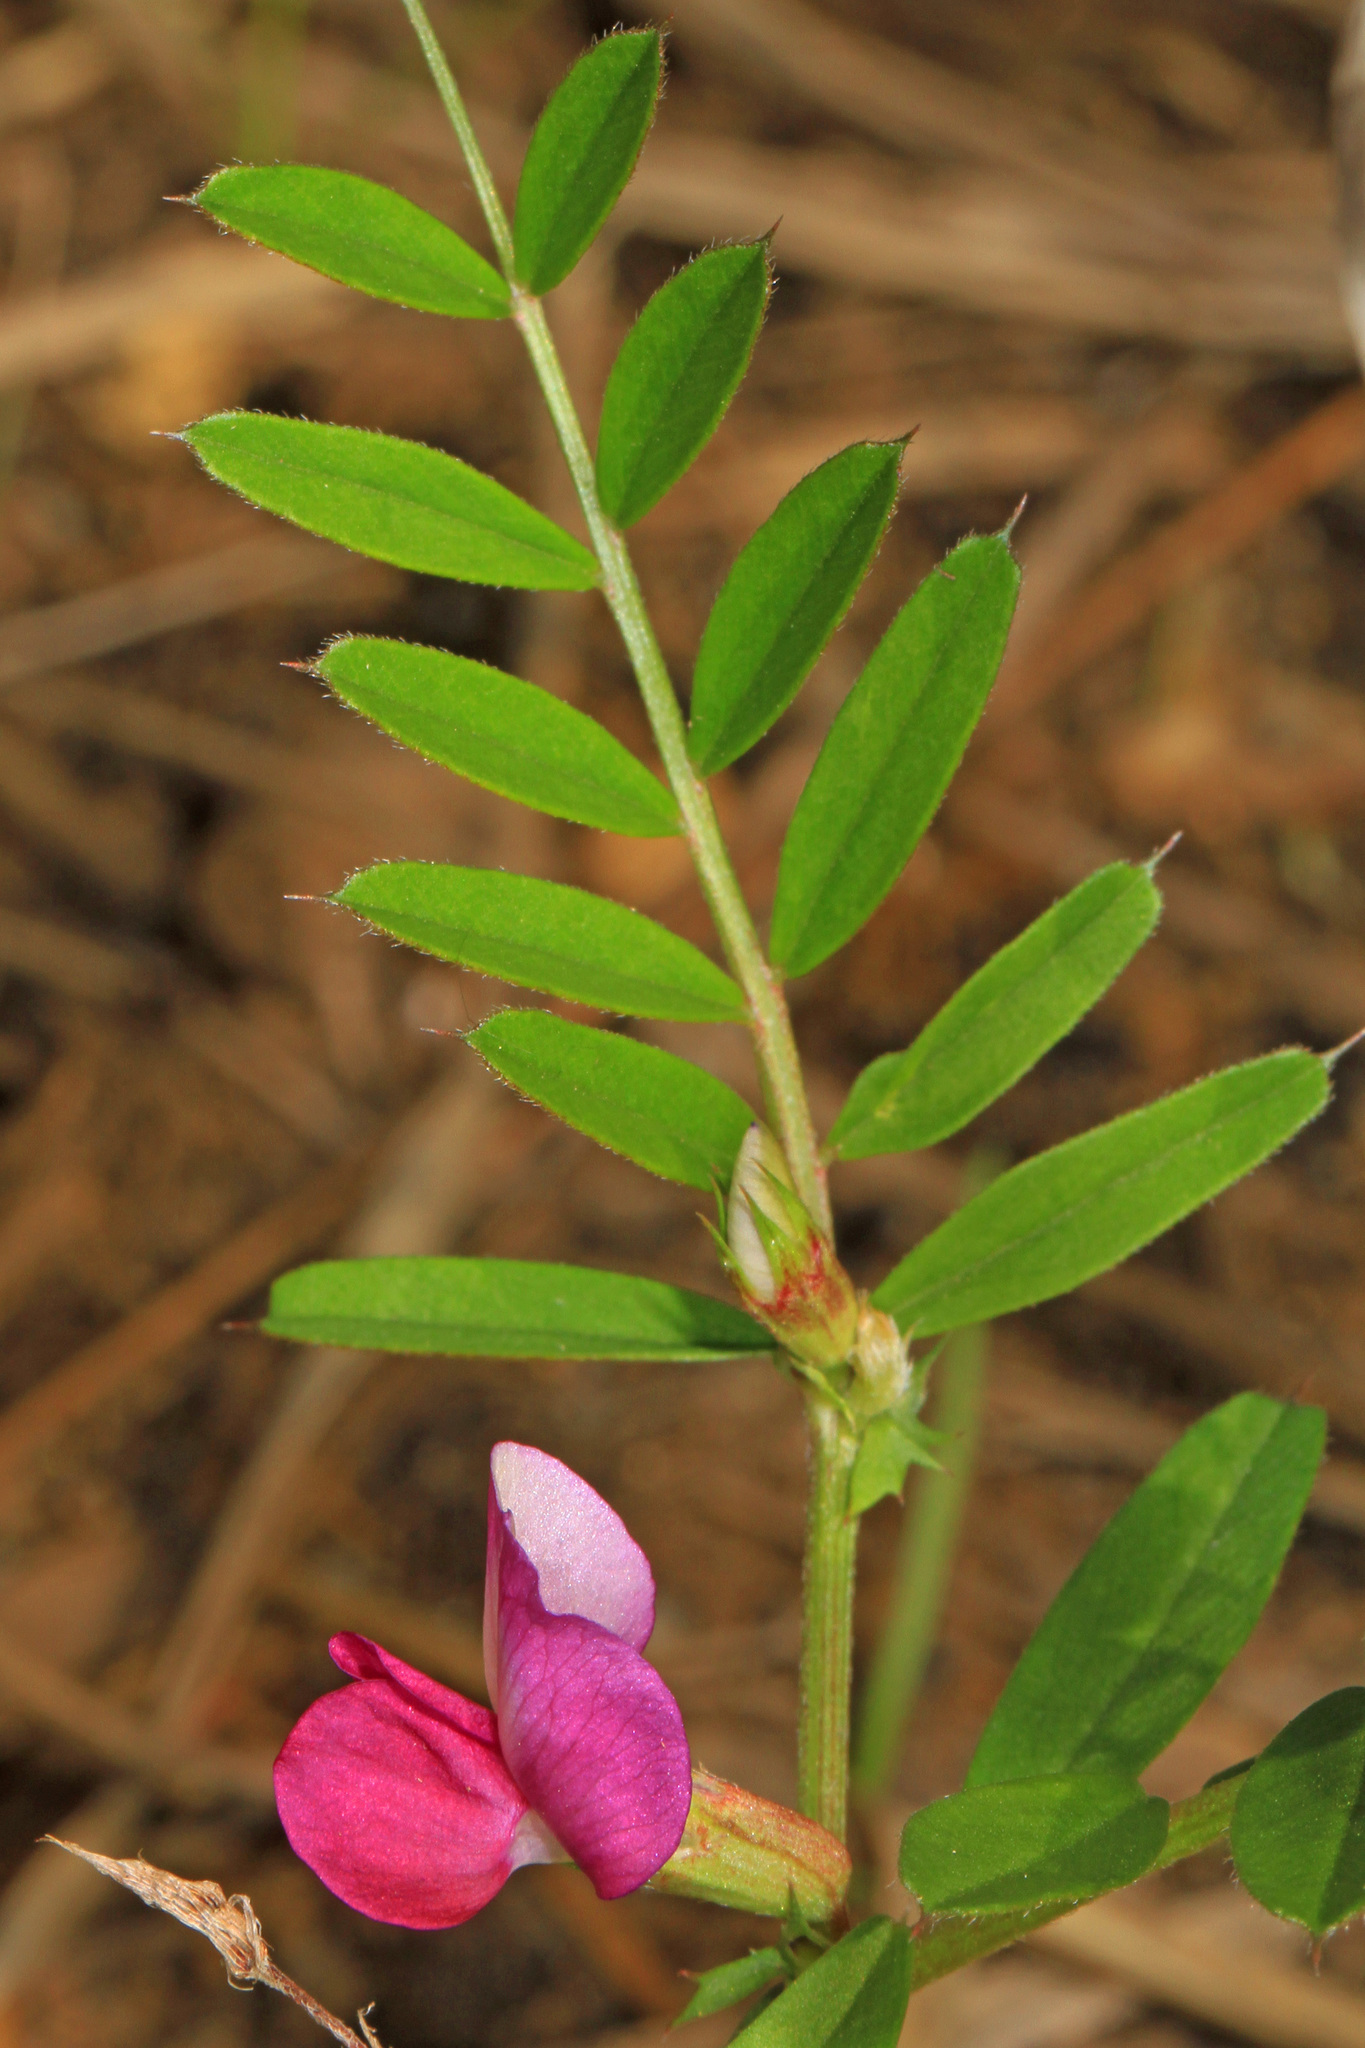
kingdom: Plantae
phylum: Tracheophyta
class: Magnoliopsida
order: Fabales
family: Fabaceae
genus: Vicia
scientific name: Vicia sativa
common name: Garden vetch
